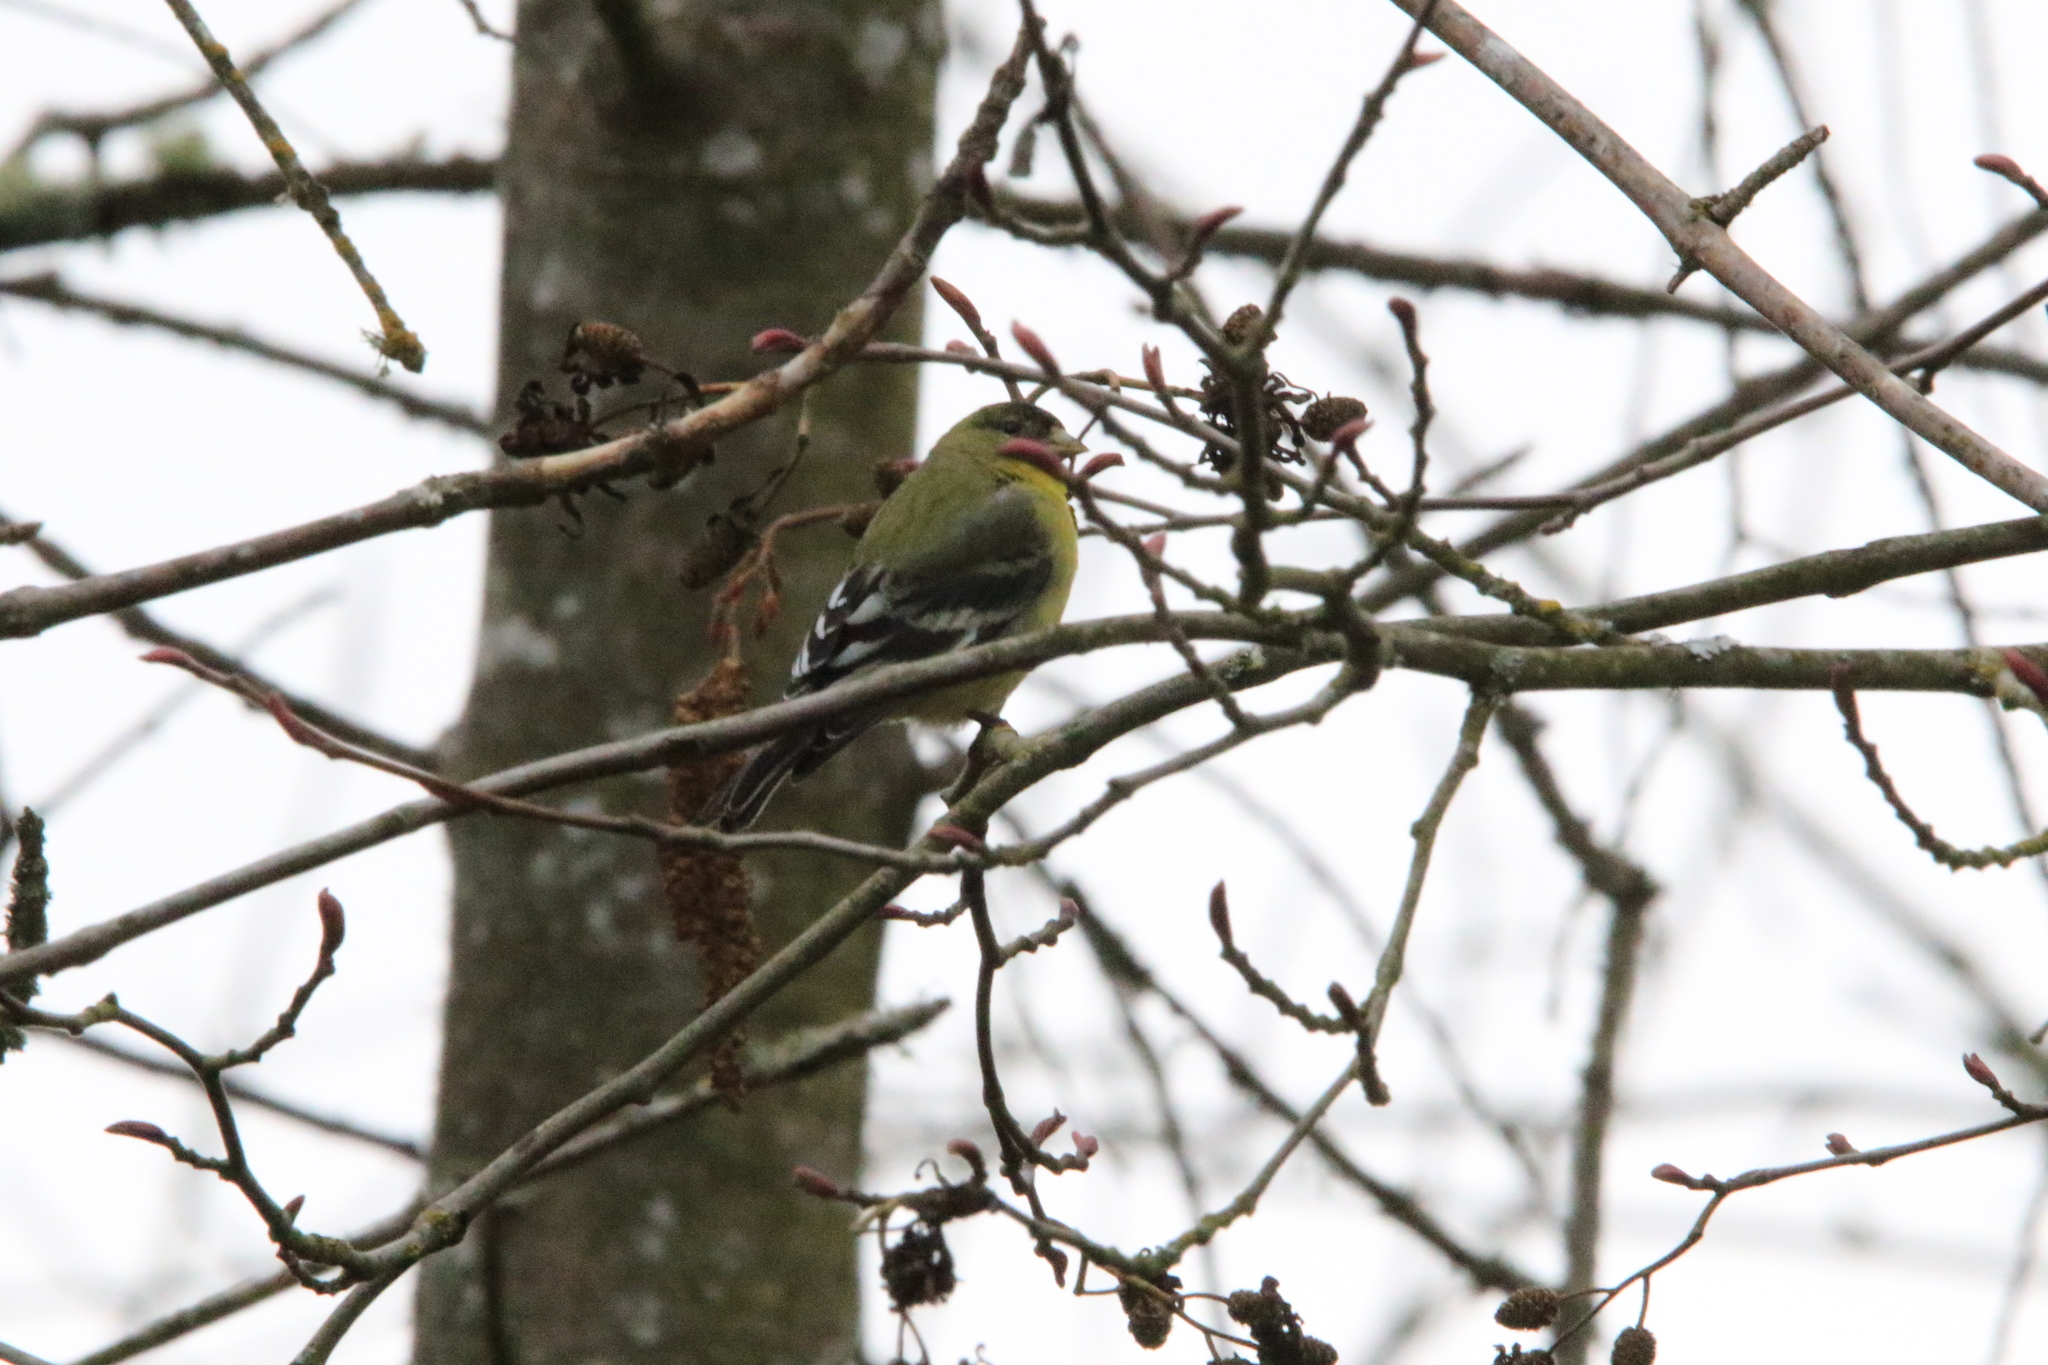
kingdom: Animalia
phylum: Chordata
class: Aves
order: Passeriformes
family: Fringillidae
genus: Spinus
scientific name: Spinus psaltria
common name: Lesser goldfinch
